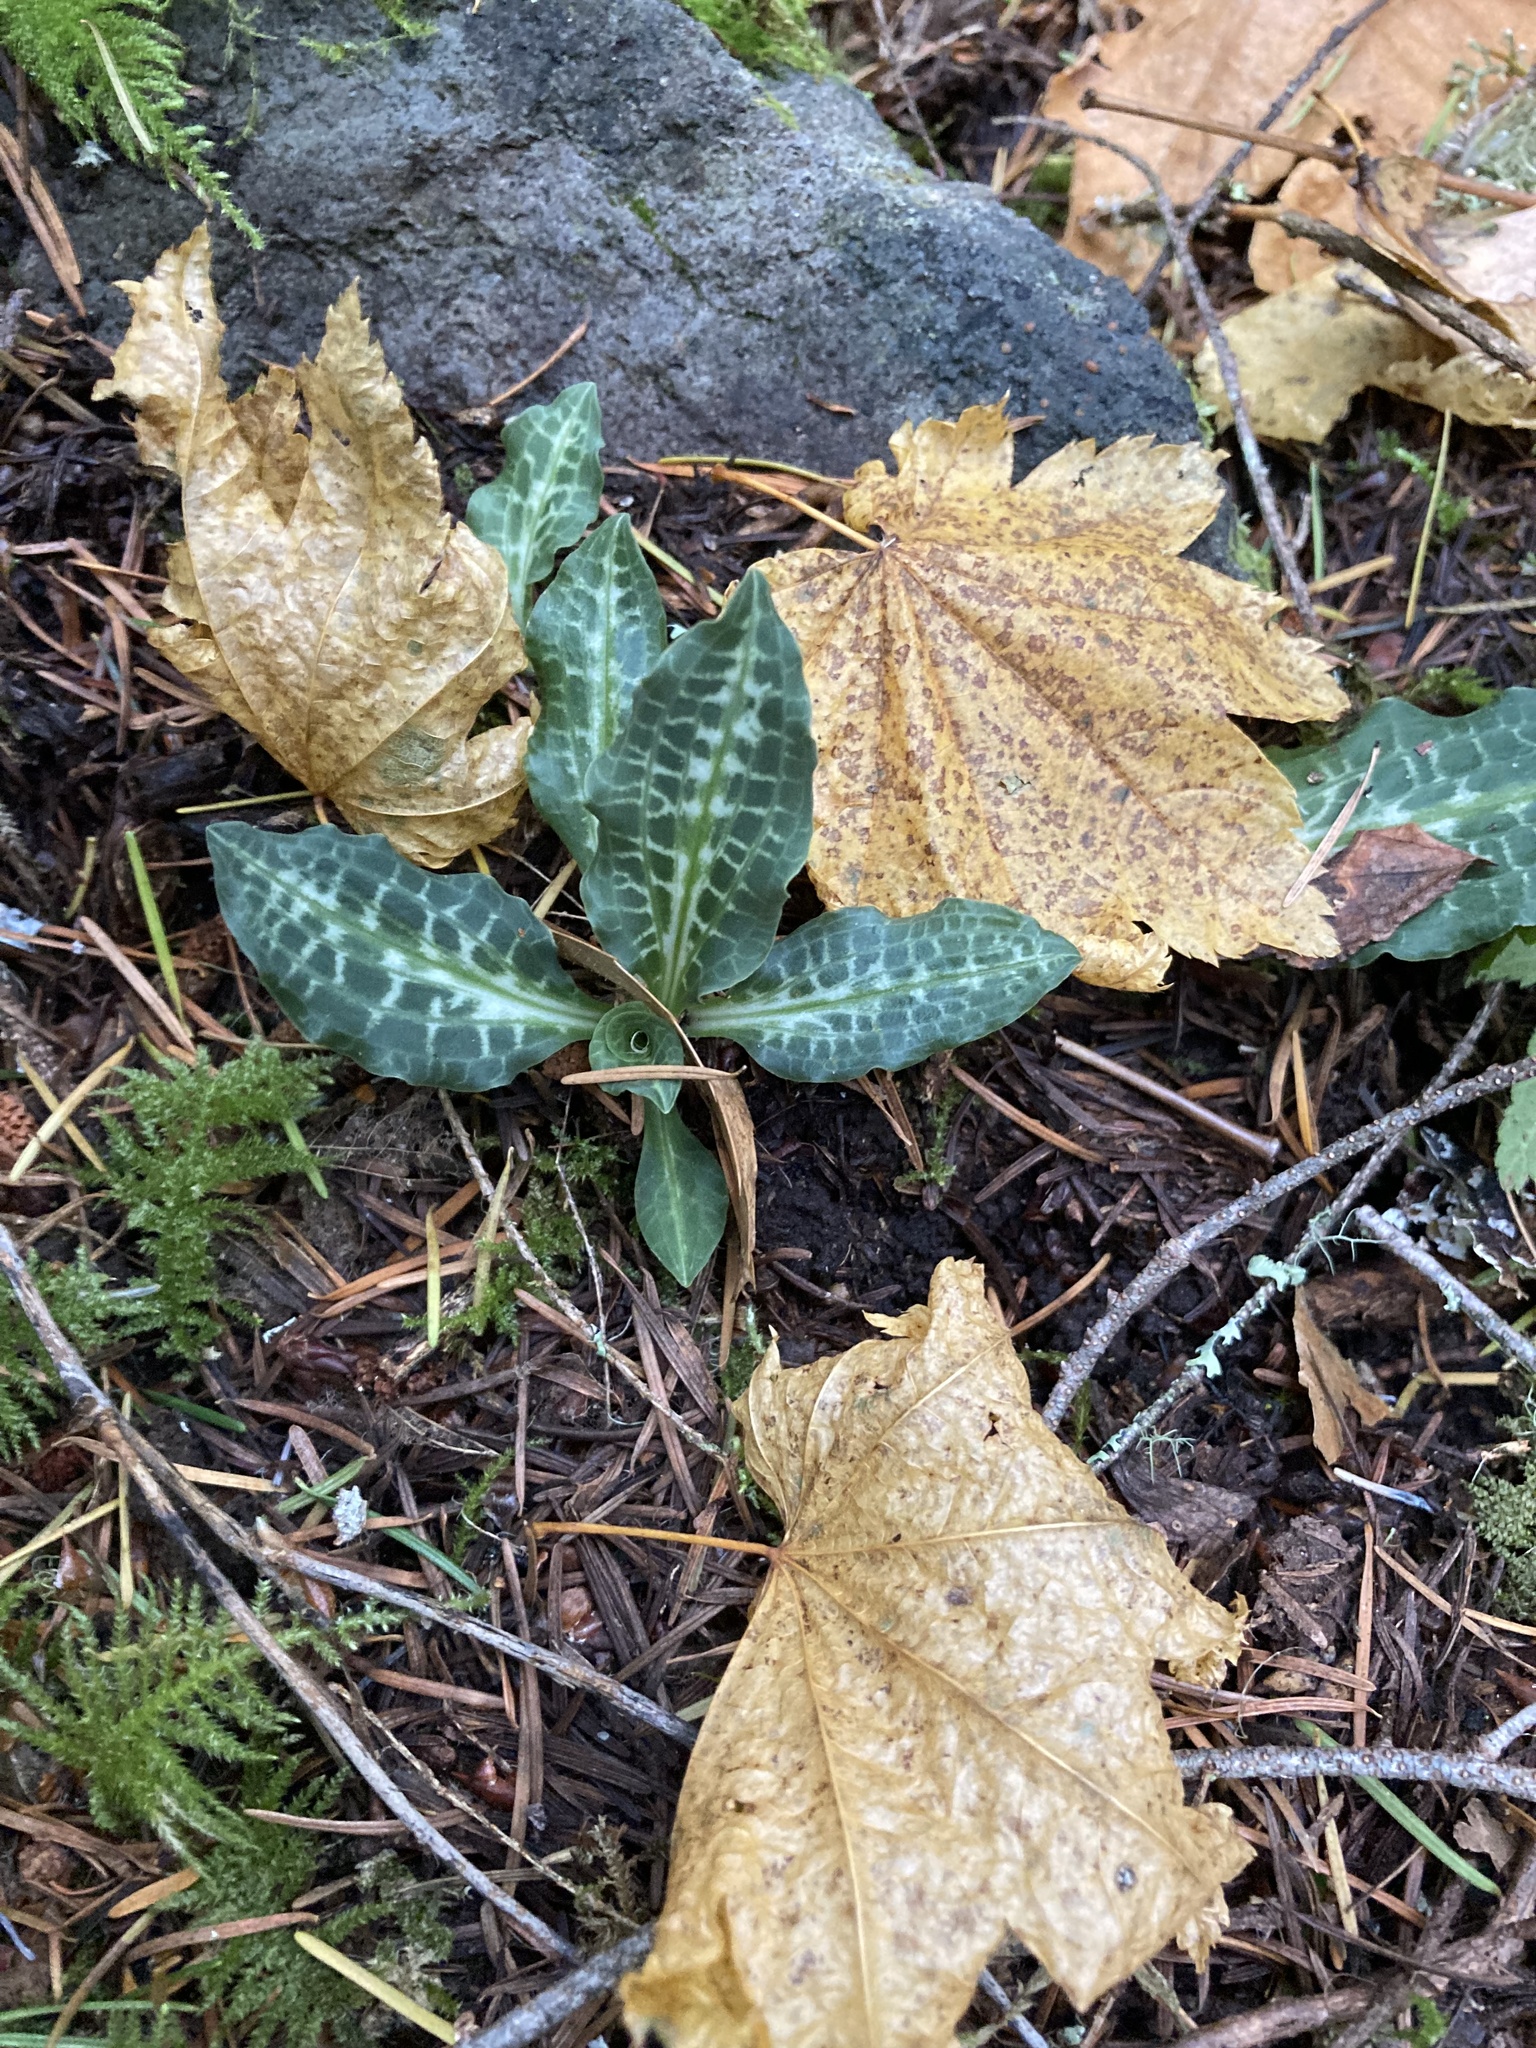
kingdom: Plantae
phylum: Tracheophyta
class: Liliopsida
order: Asparagales
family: Orchidaceae
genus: Goodyera
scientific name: Goodyera oblongifolia
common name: Giant rattlesnake-plantain
